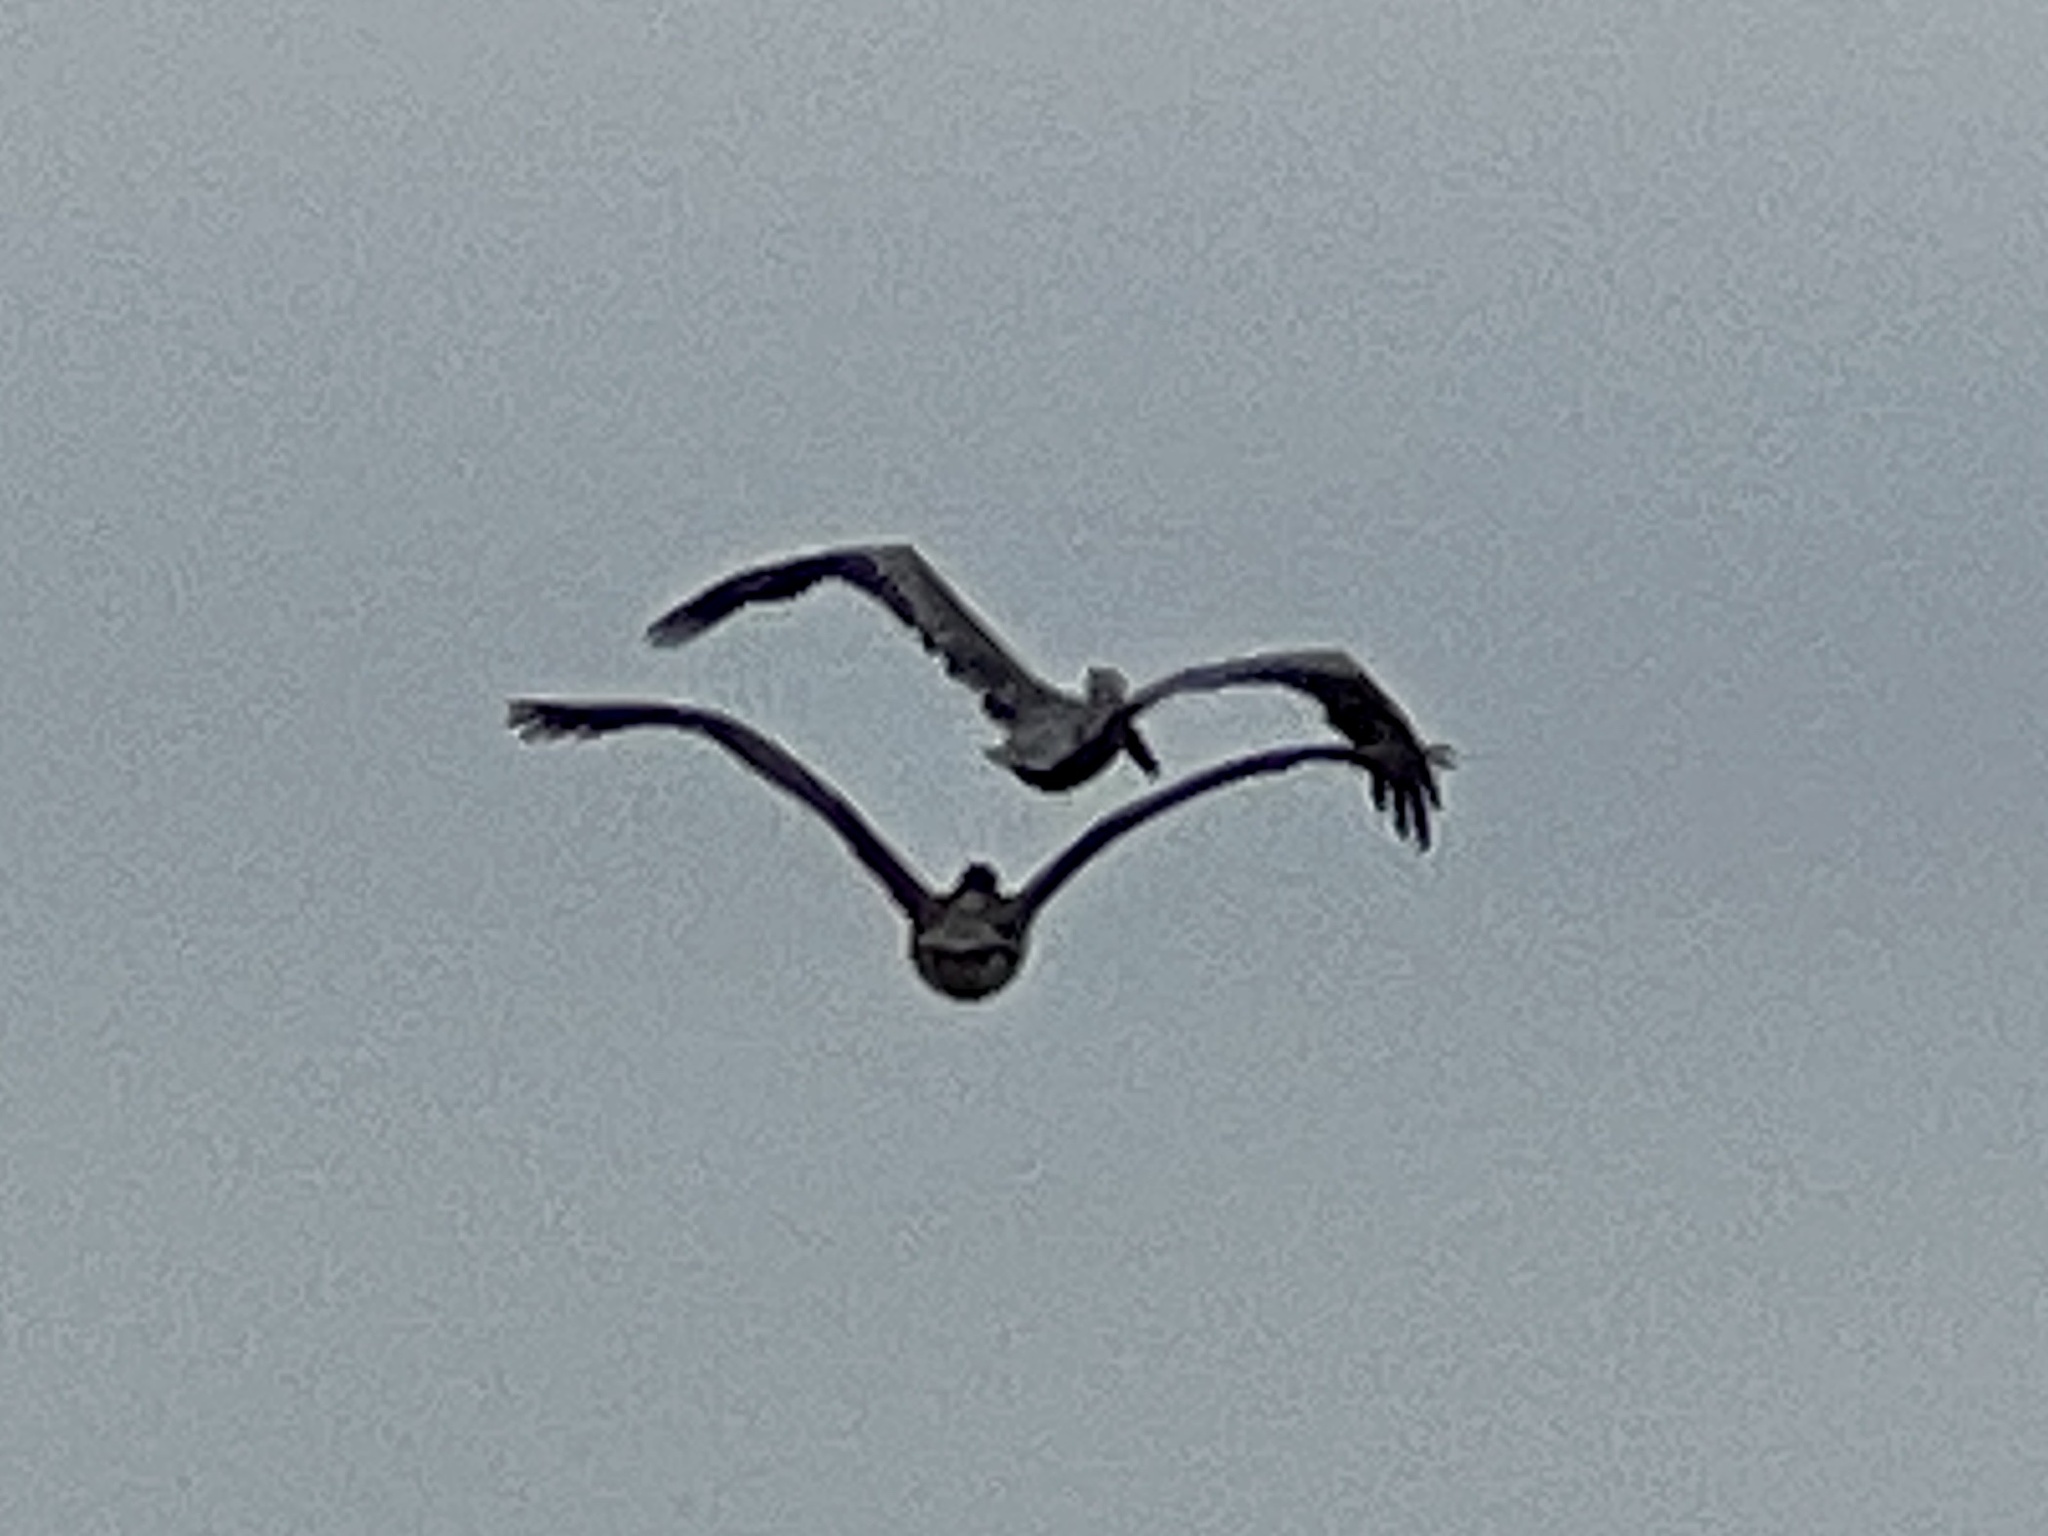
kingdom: Animalia
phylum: Chordata
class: Aves
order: Pelecaniformes
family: Pelecanidae
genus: Pelecanus
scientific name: Pelecanus occidentalis
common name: Brown pelican
